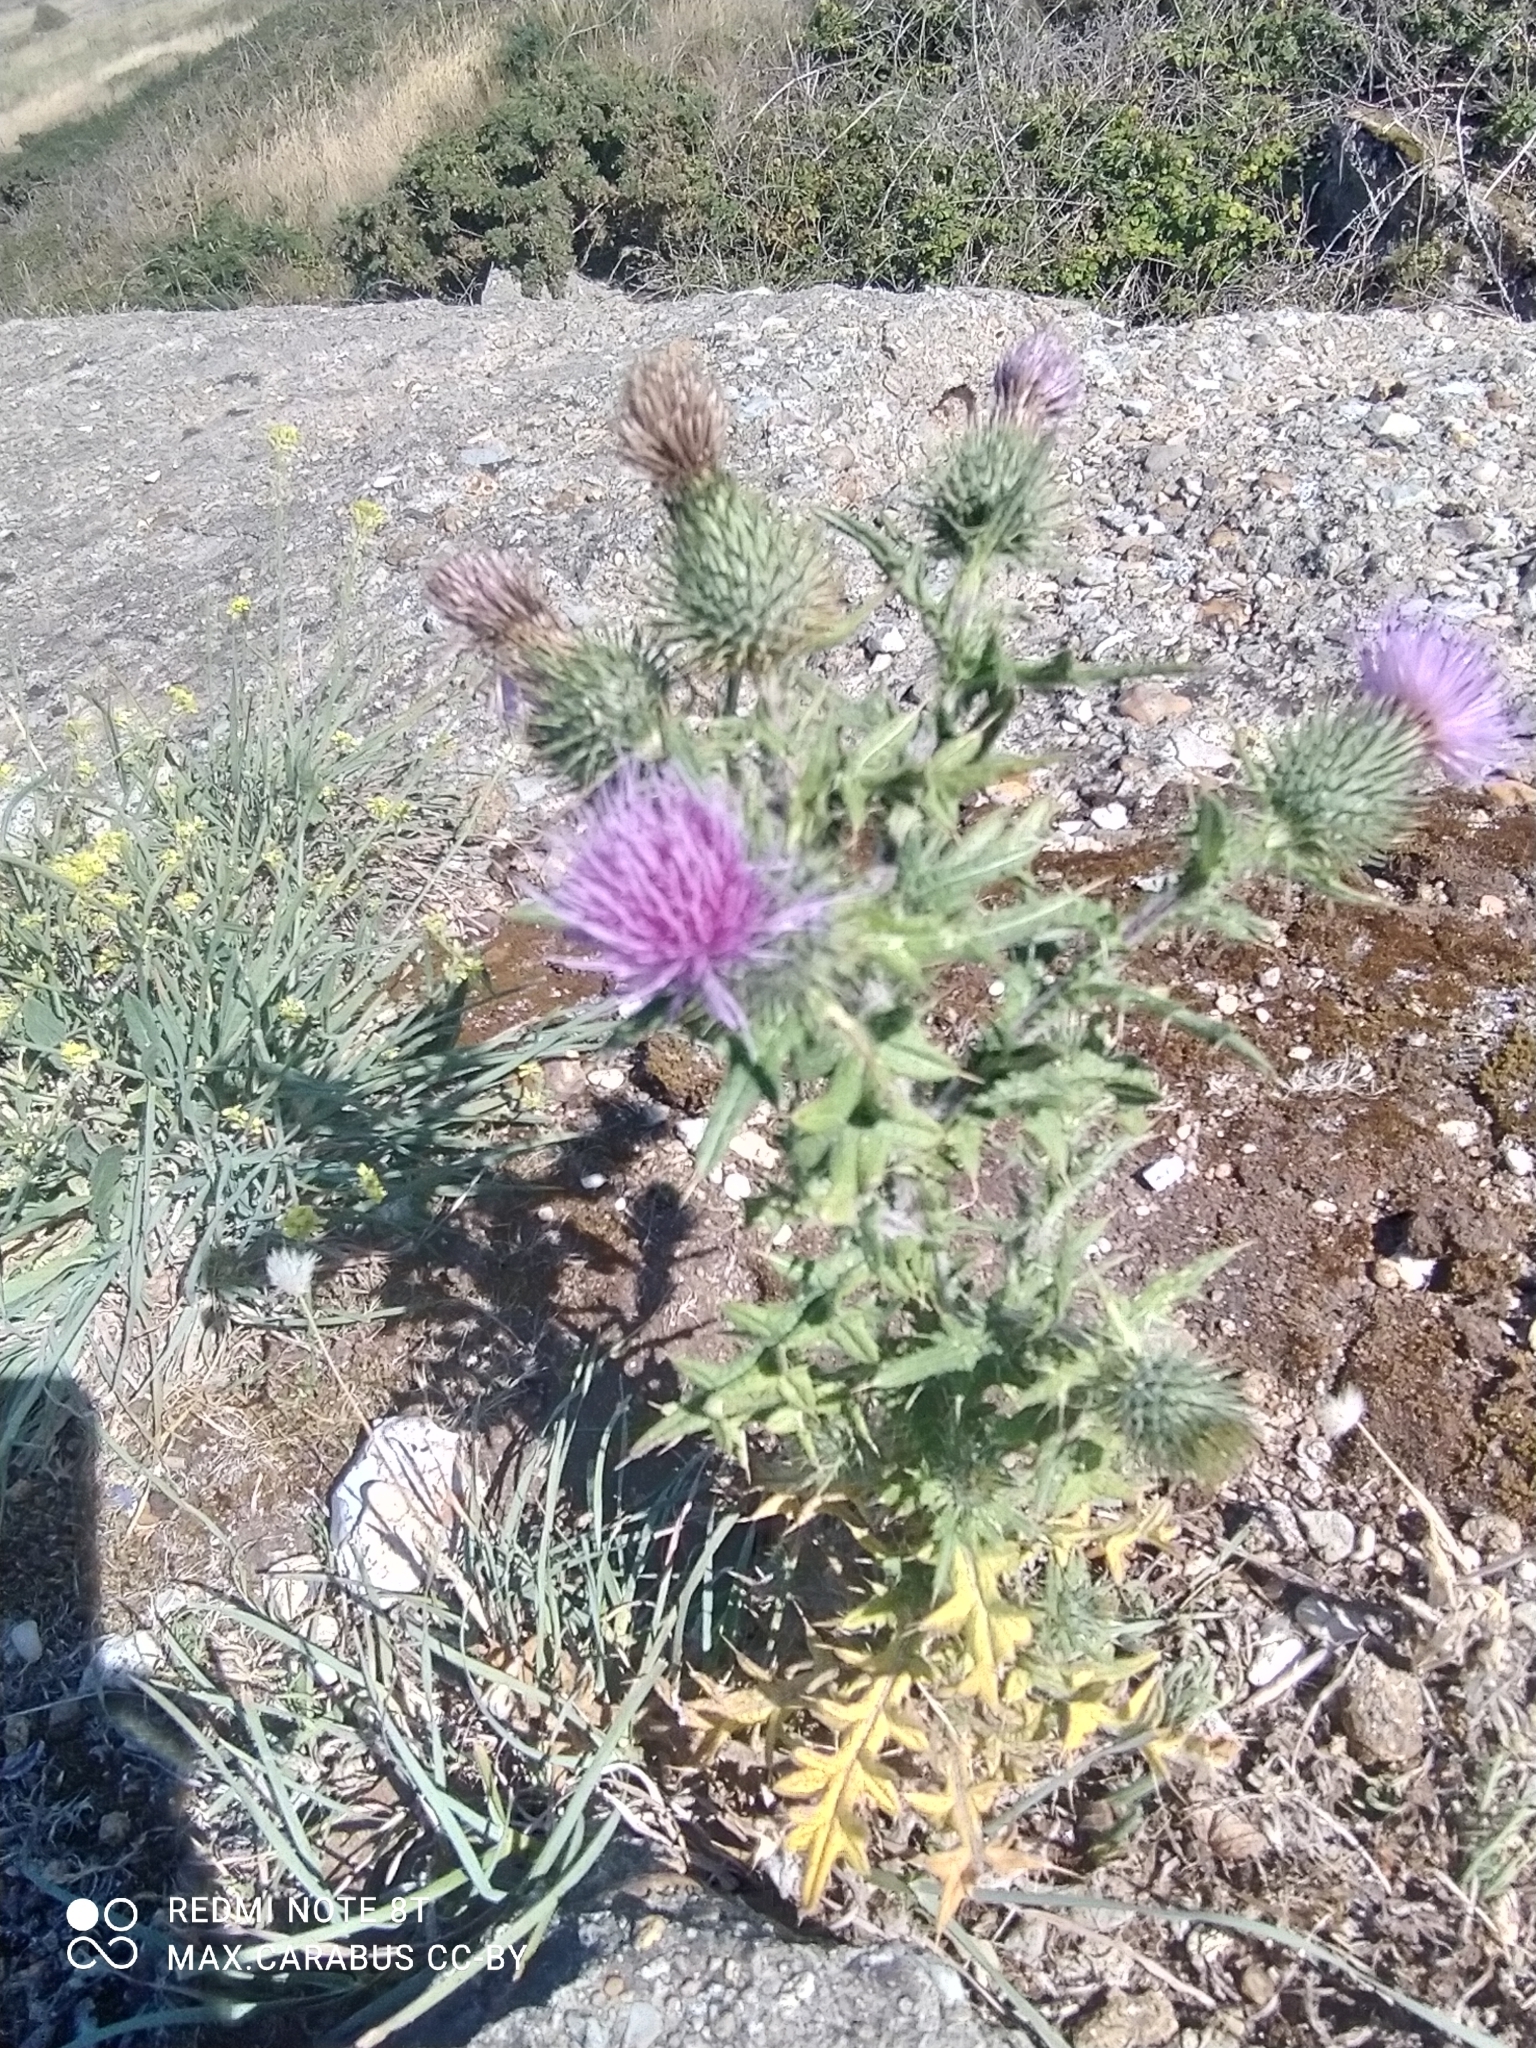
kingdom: Plantae
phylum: Tracheophyta
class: Magnoliopsida
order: Asterales
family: Asteraceae
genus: Cirsium
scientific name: Cirsium vulgare
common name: Bull thistle
